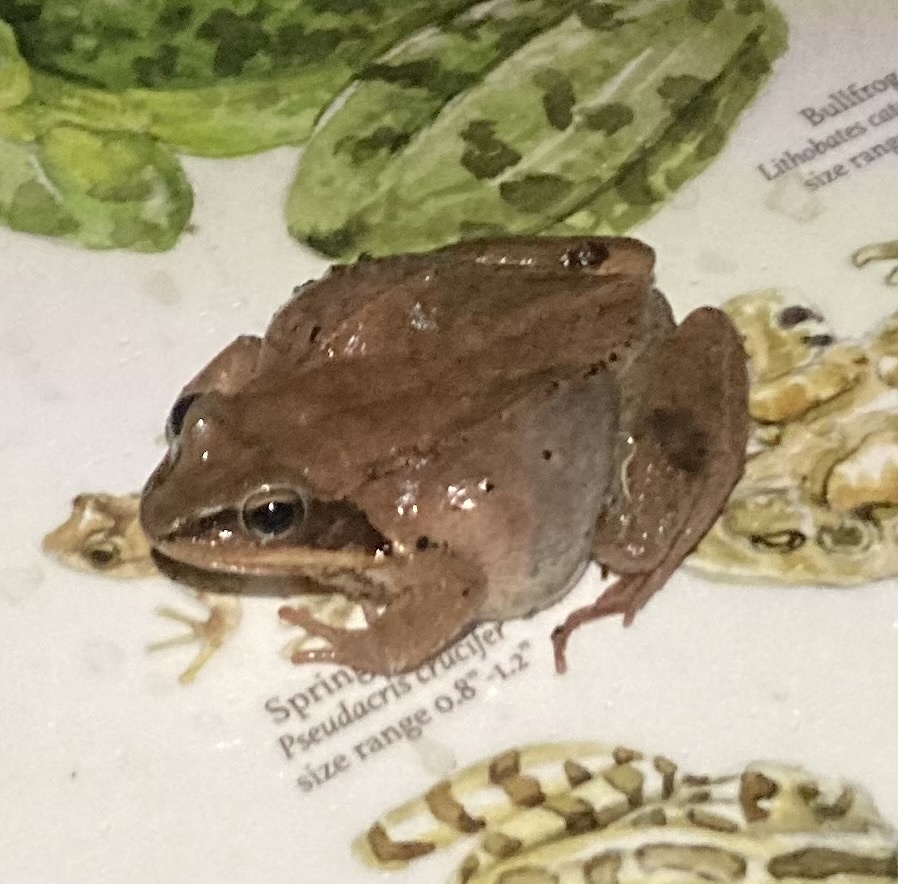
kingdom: Animalia
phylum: Chordata
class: Amphibia
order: Anura
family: Ranidae
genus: Lithobates
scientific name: Lithobates sylvaticus
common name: Wood frog
